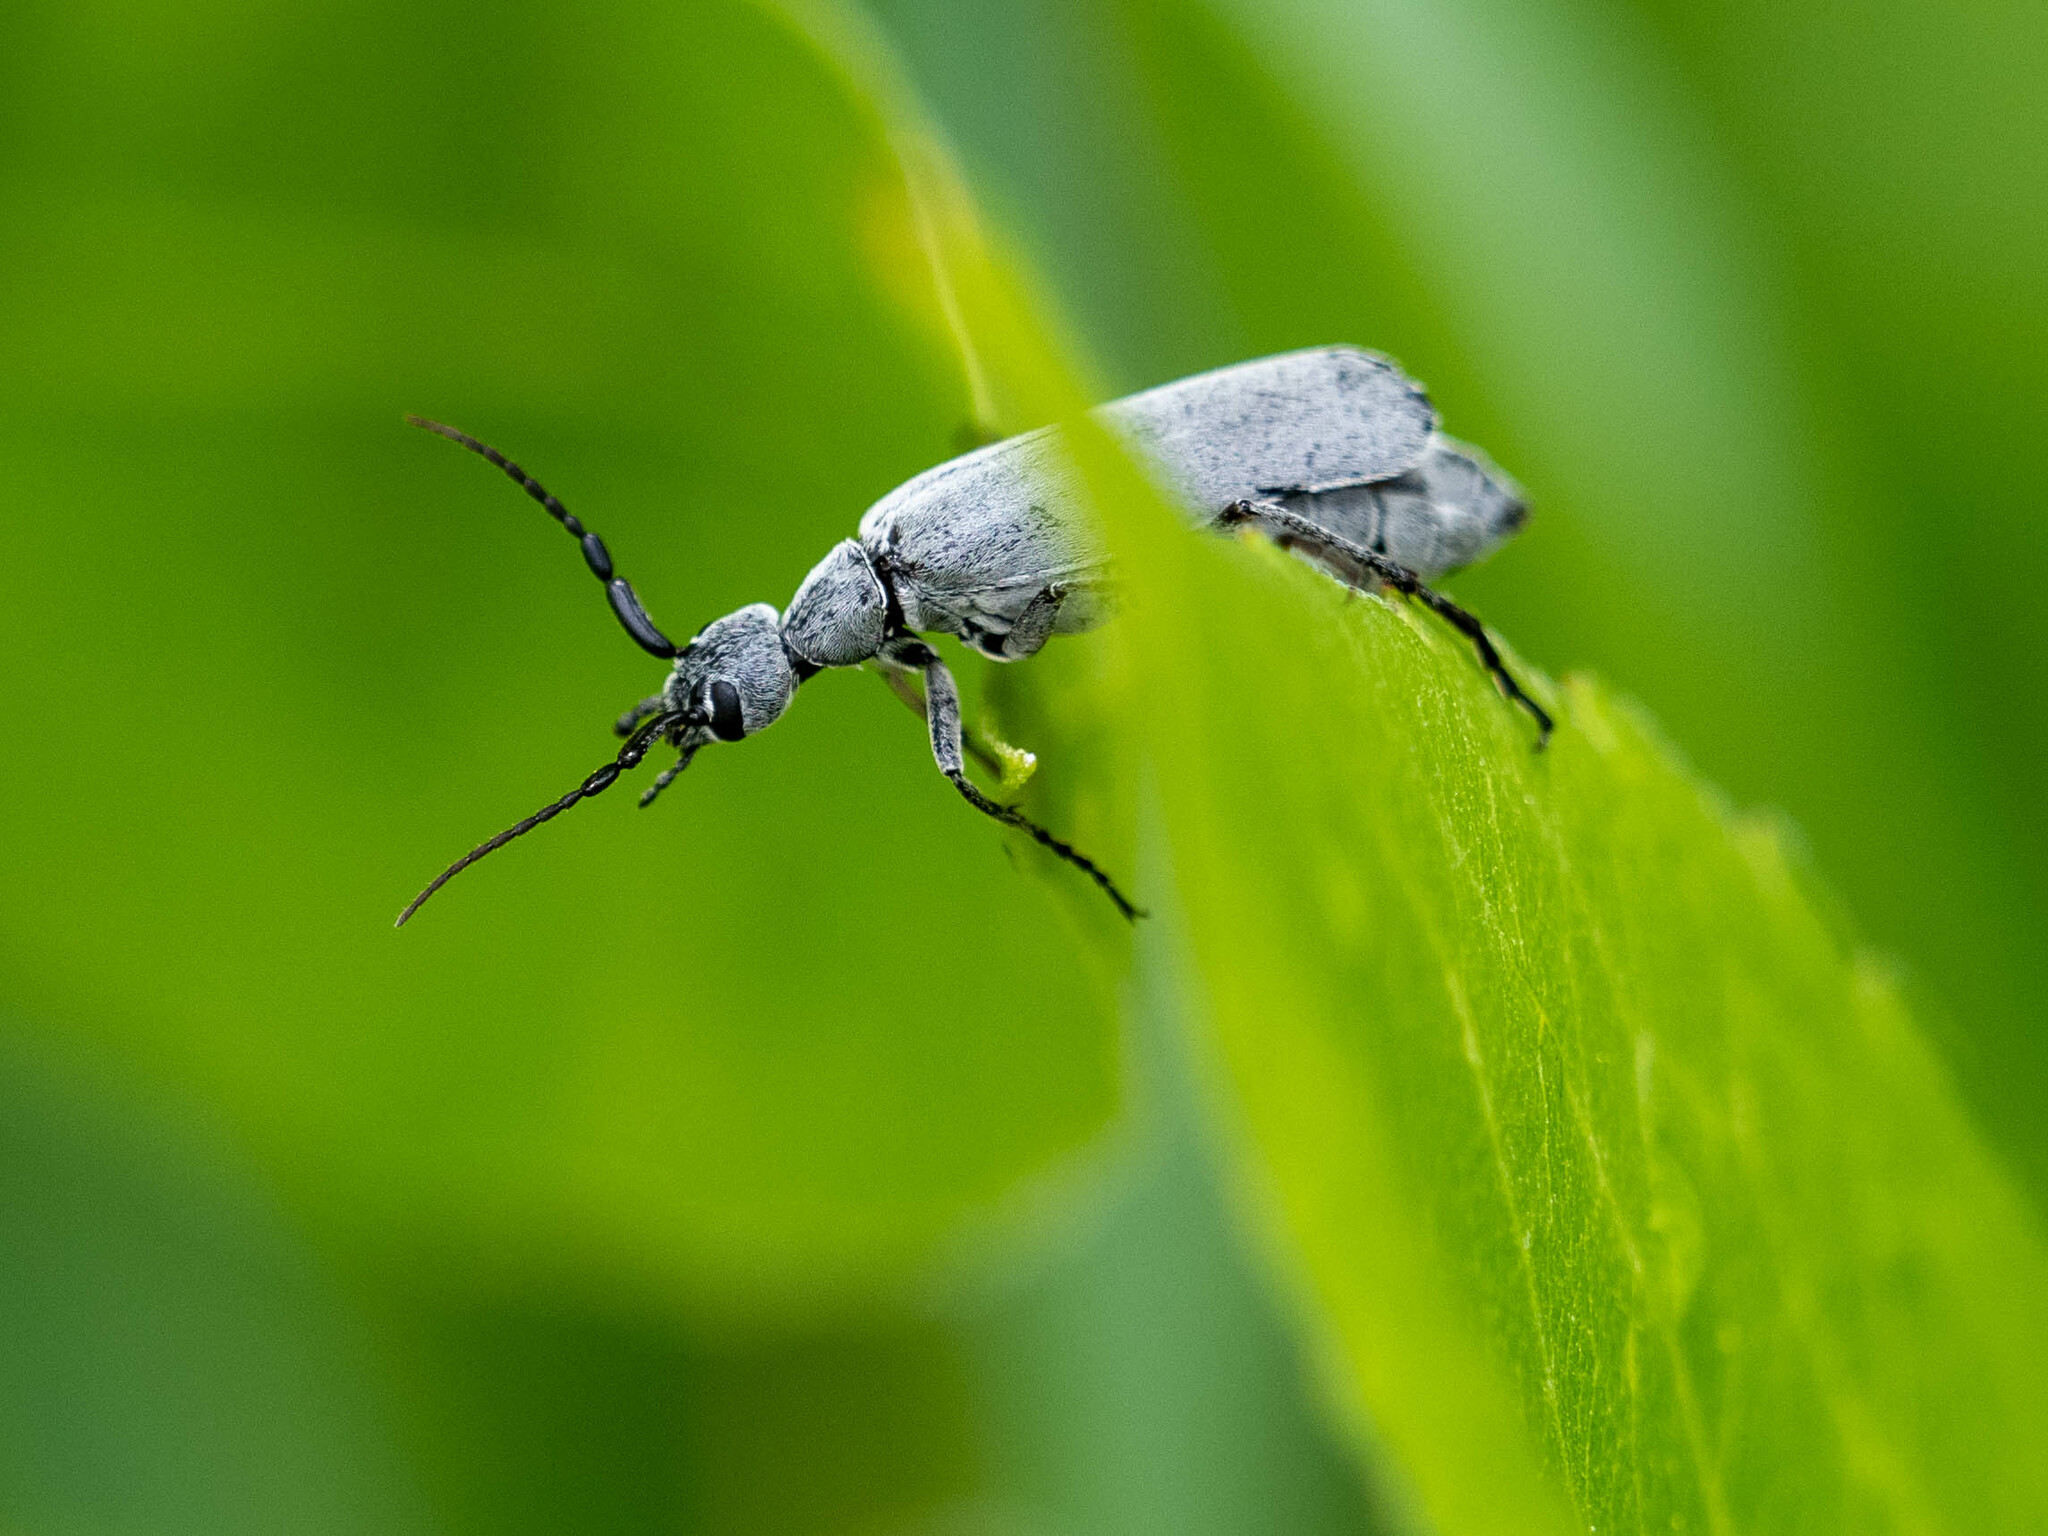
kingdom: Animalia
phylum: Arthropoda
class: Insecta
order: Coleoptera
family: Meloidae
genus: Epicauta
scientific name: Epicauta fabricii
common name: Ashgray blister beetle
